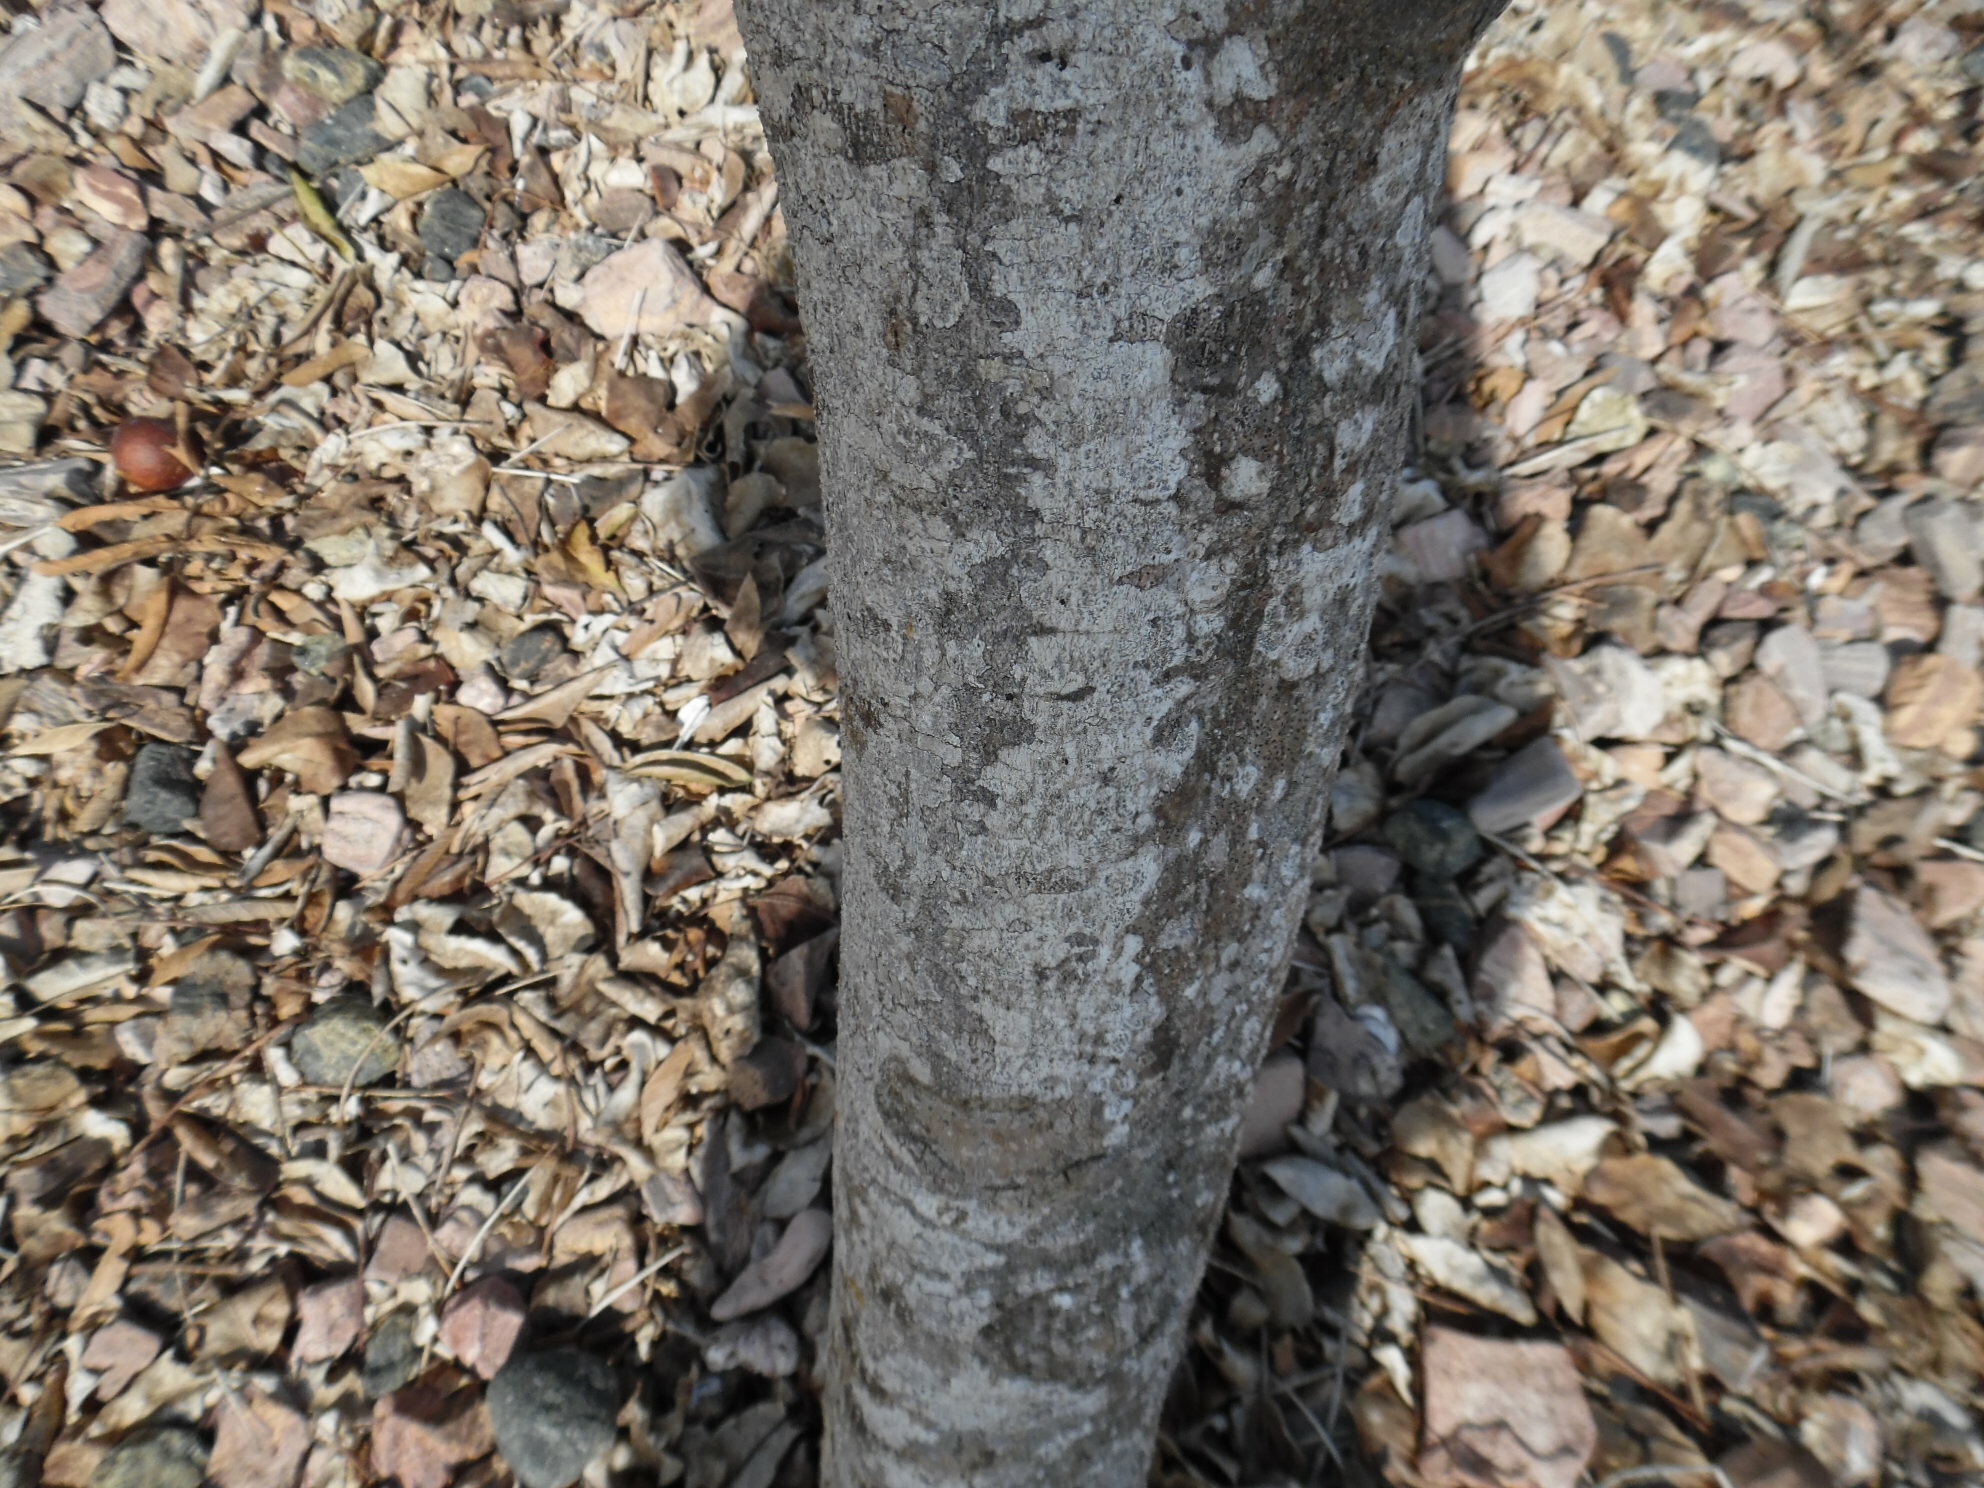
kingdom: Plantae
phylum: Tracheophyta
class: Magnoliopsida
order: Brassicales
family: Capparaceae
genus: Crateva
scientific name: Crateva tapia
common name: Garlic-pear
